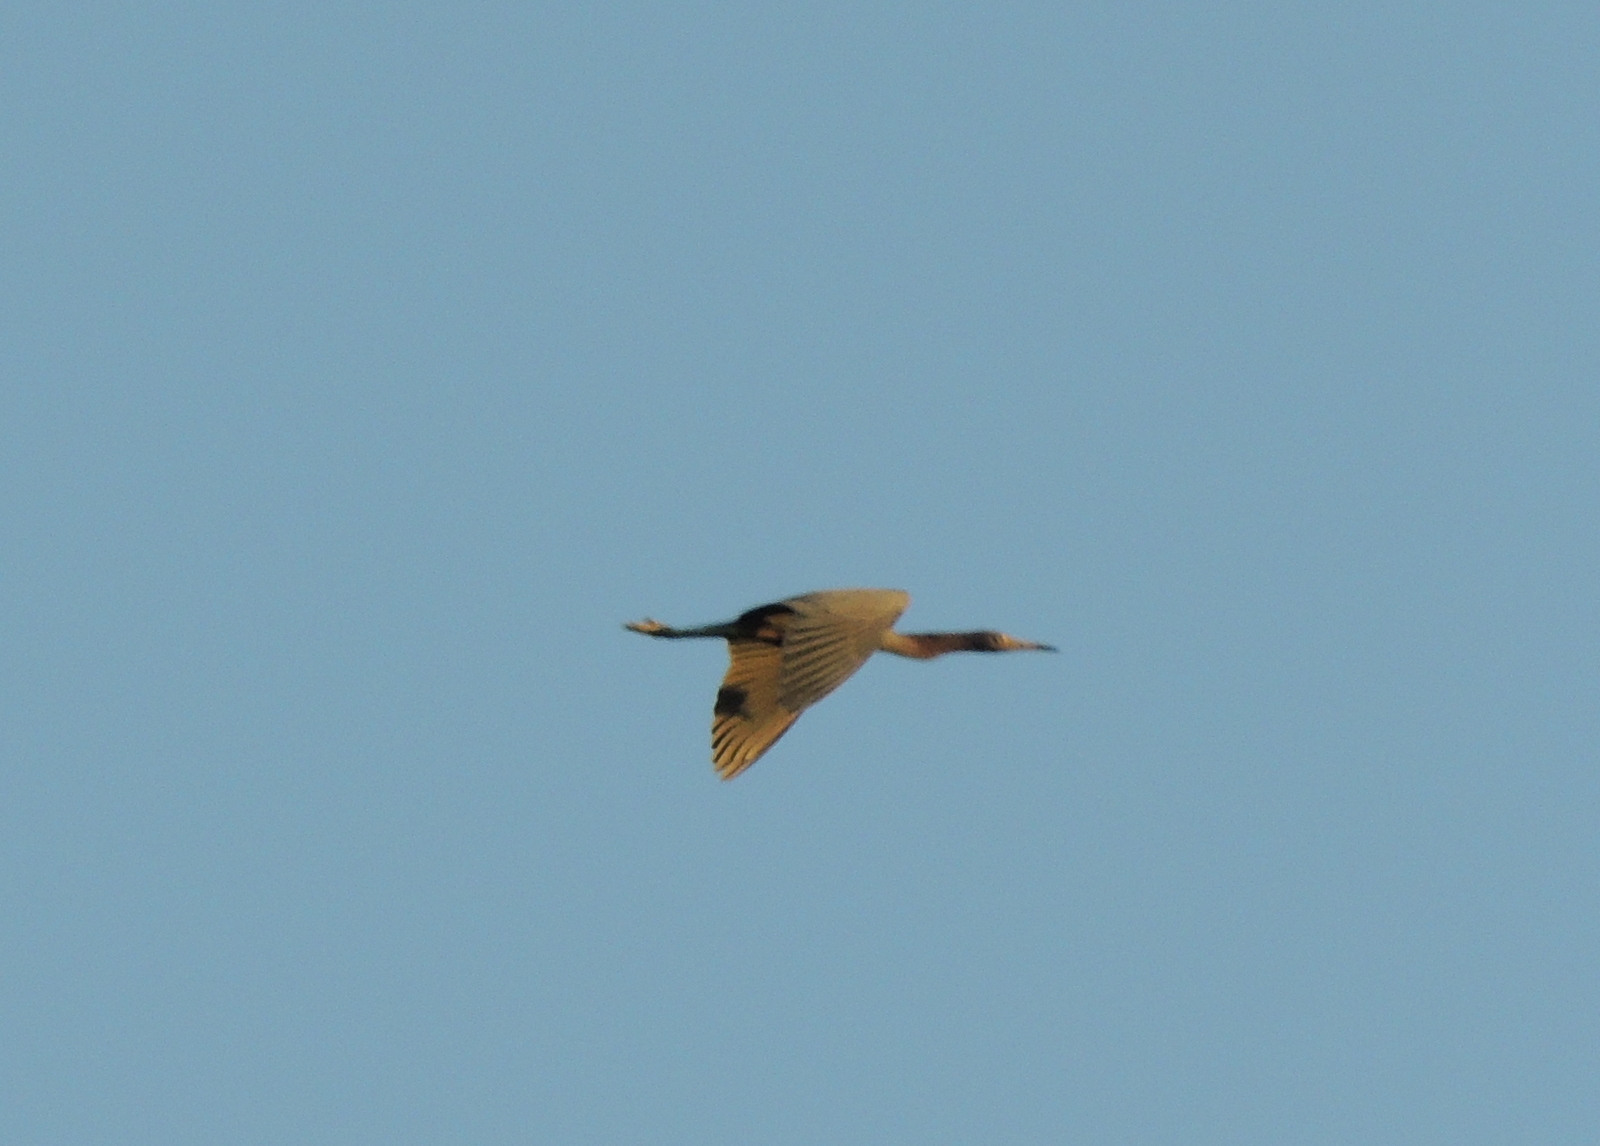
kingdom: Animalia
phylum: Chordata
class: Aves
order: Pelecaniformes
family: Ardeidae
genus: Egretta
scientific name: Egretta caerulea
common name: Little blue heron
